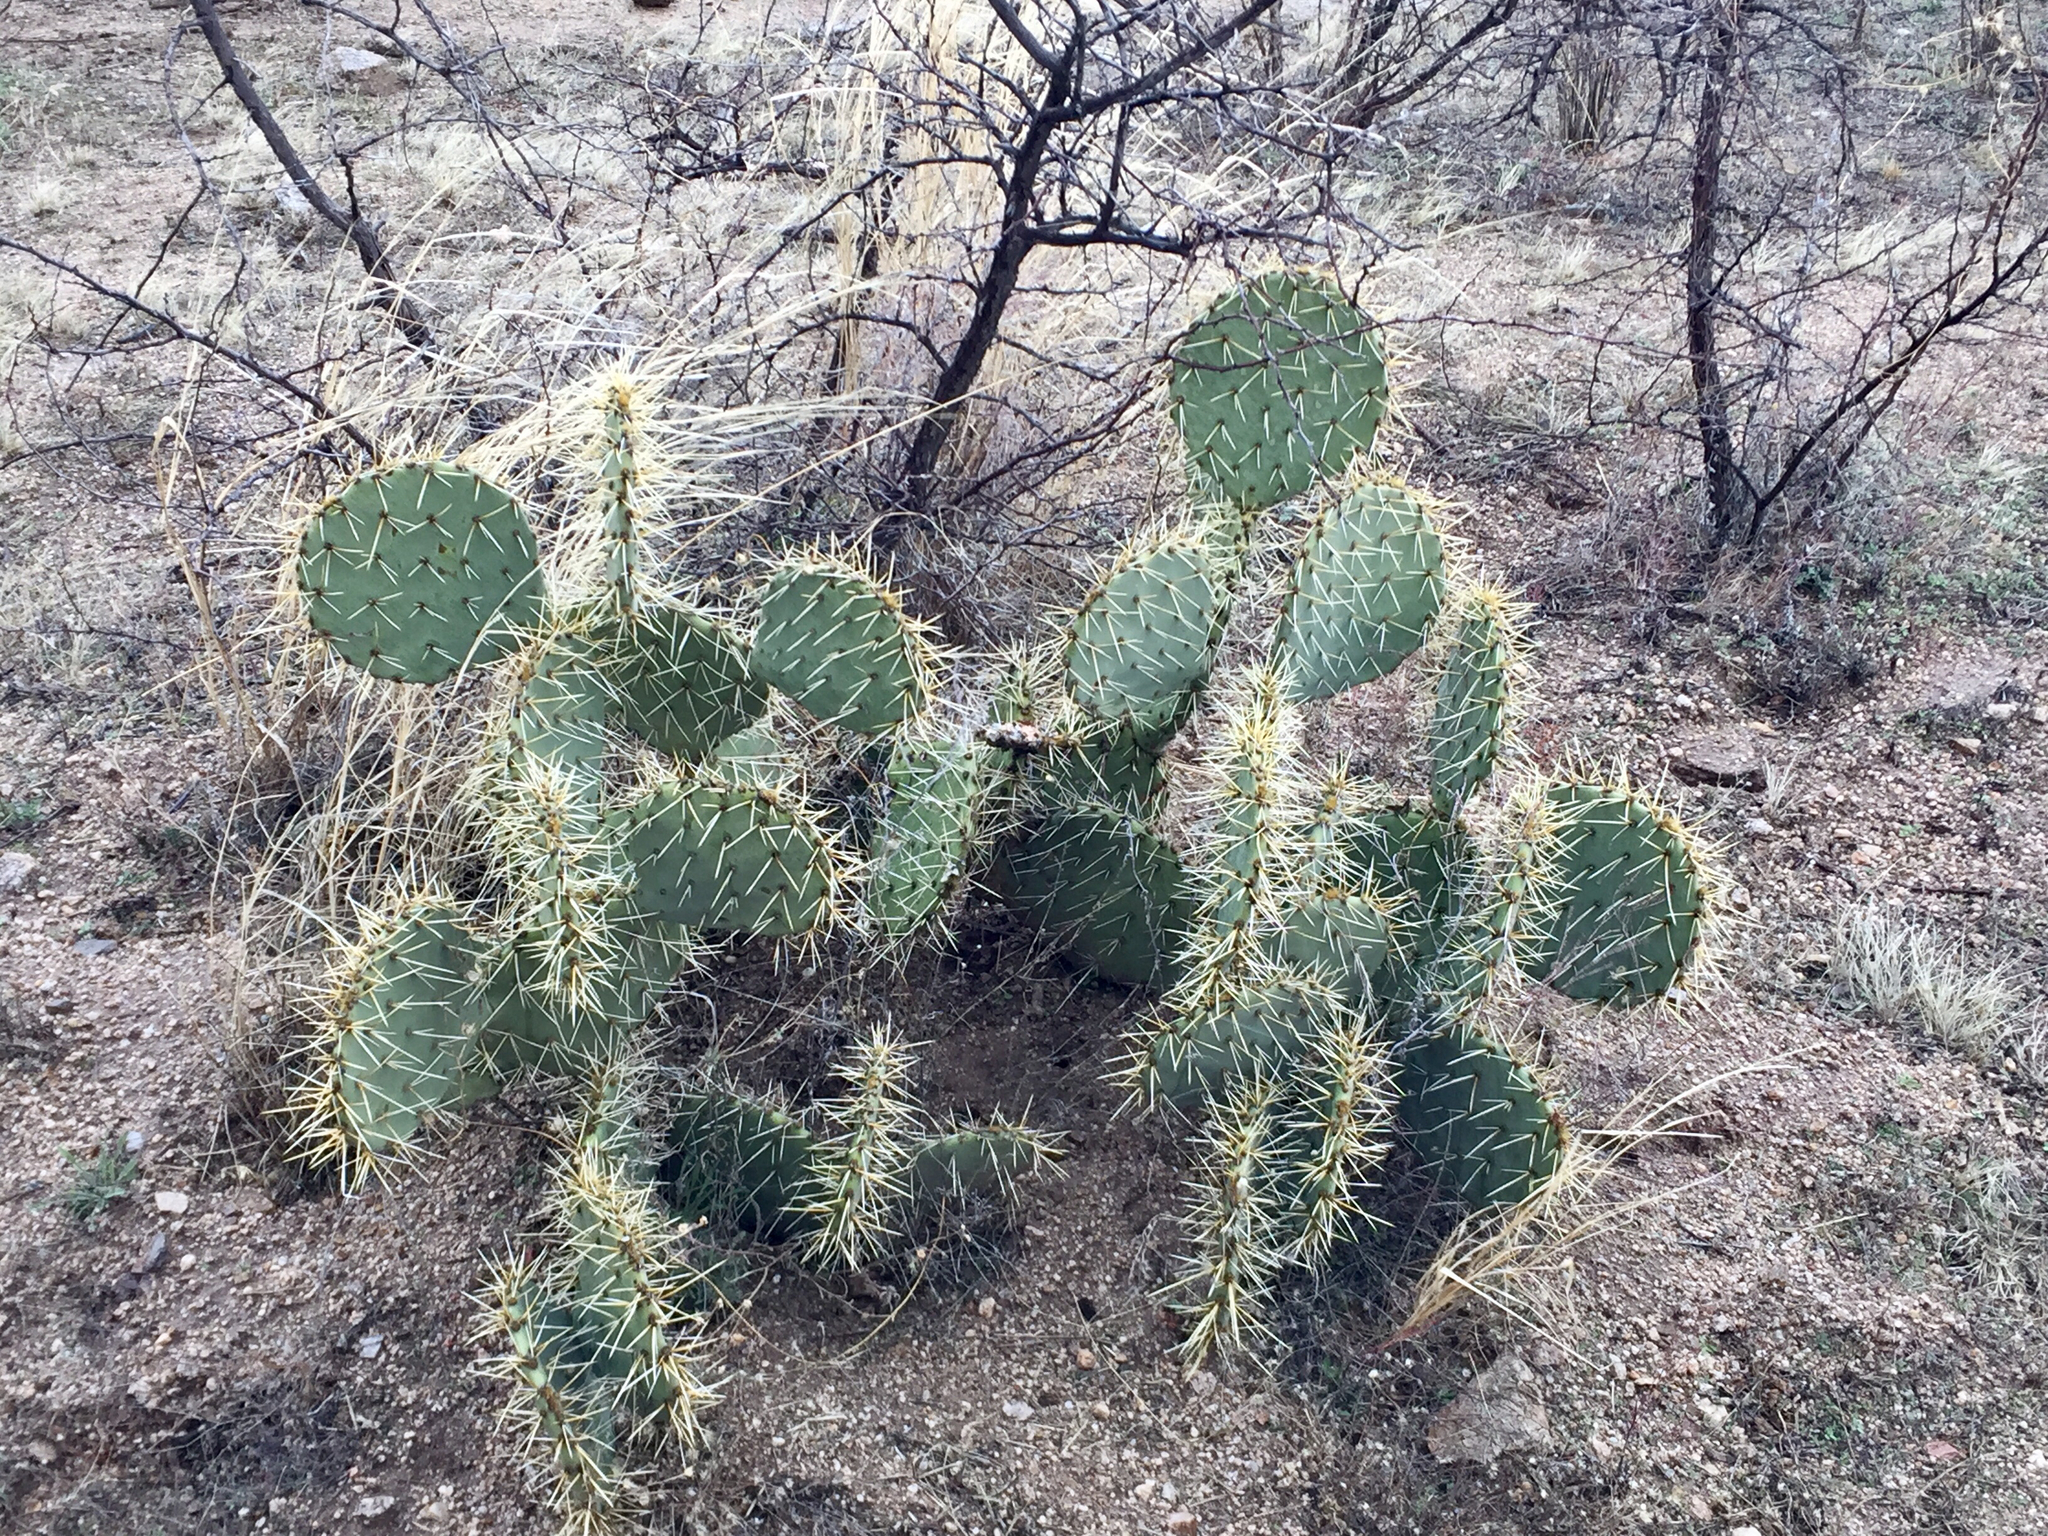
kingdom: Plantae
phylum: Tracheophyta
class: Magnoliopsida
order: Caryophyllales
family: Cactaceae
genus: Opuntia
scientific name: Opuntia engelmannii
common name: Cactus-apple
